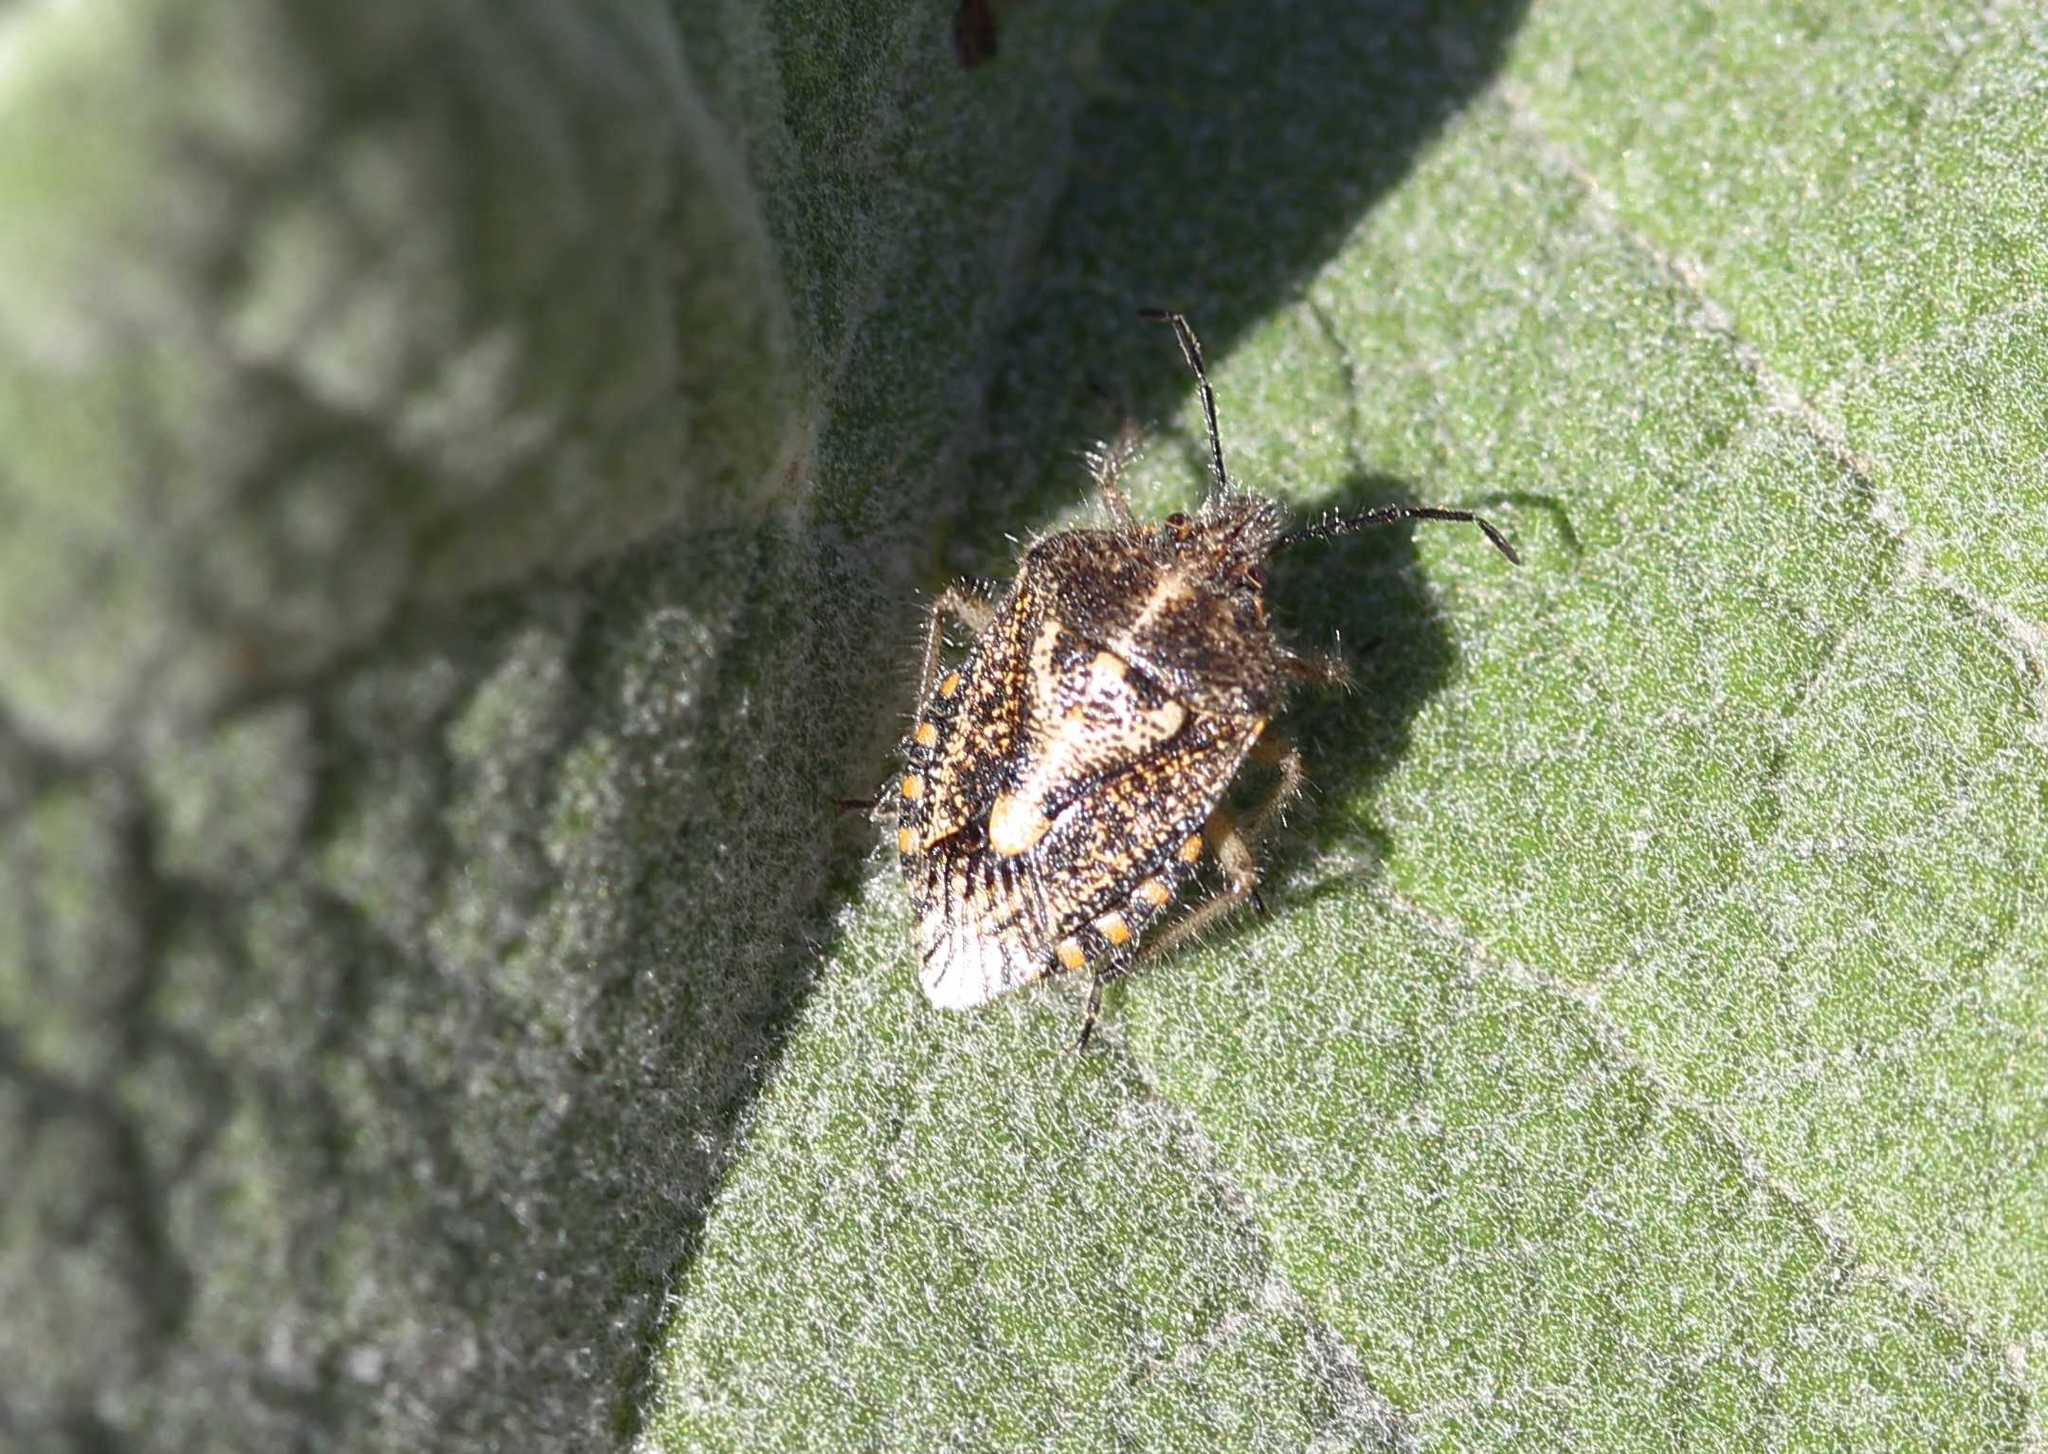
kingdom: Animalia
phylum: Arthropoda
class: Insecta
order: Hemiptera
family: Pentatomidae
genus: Agonoscelis
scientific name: Agonoscelis puberula
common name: African cluster bug
